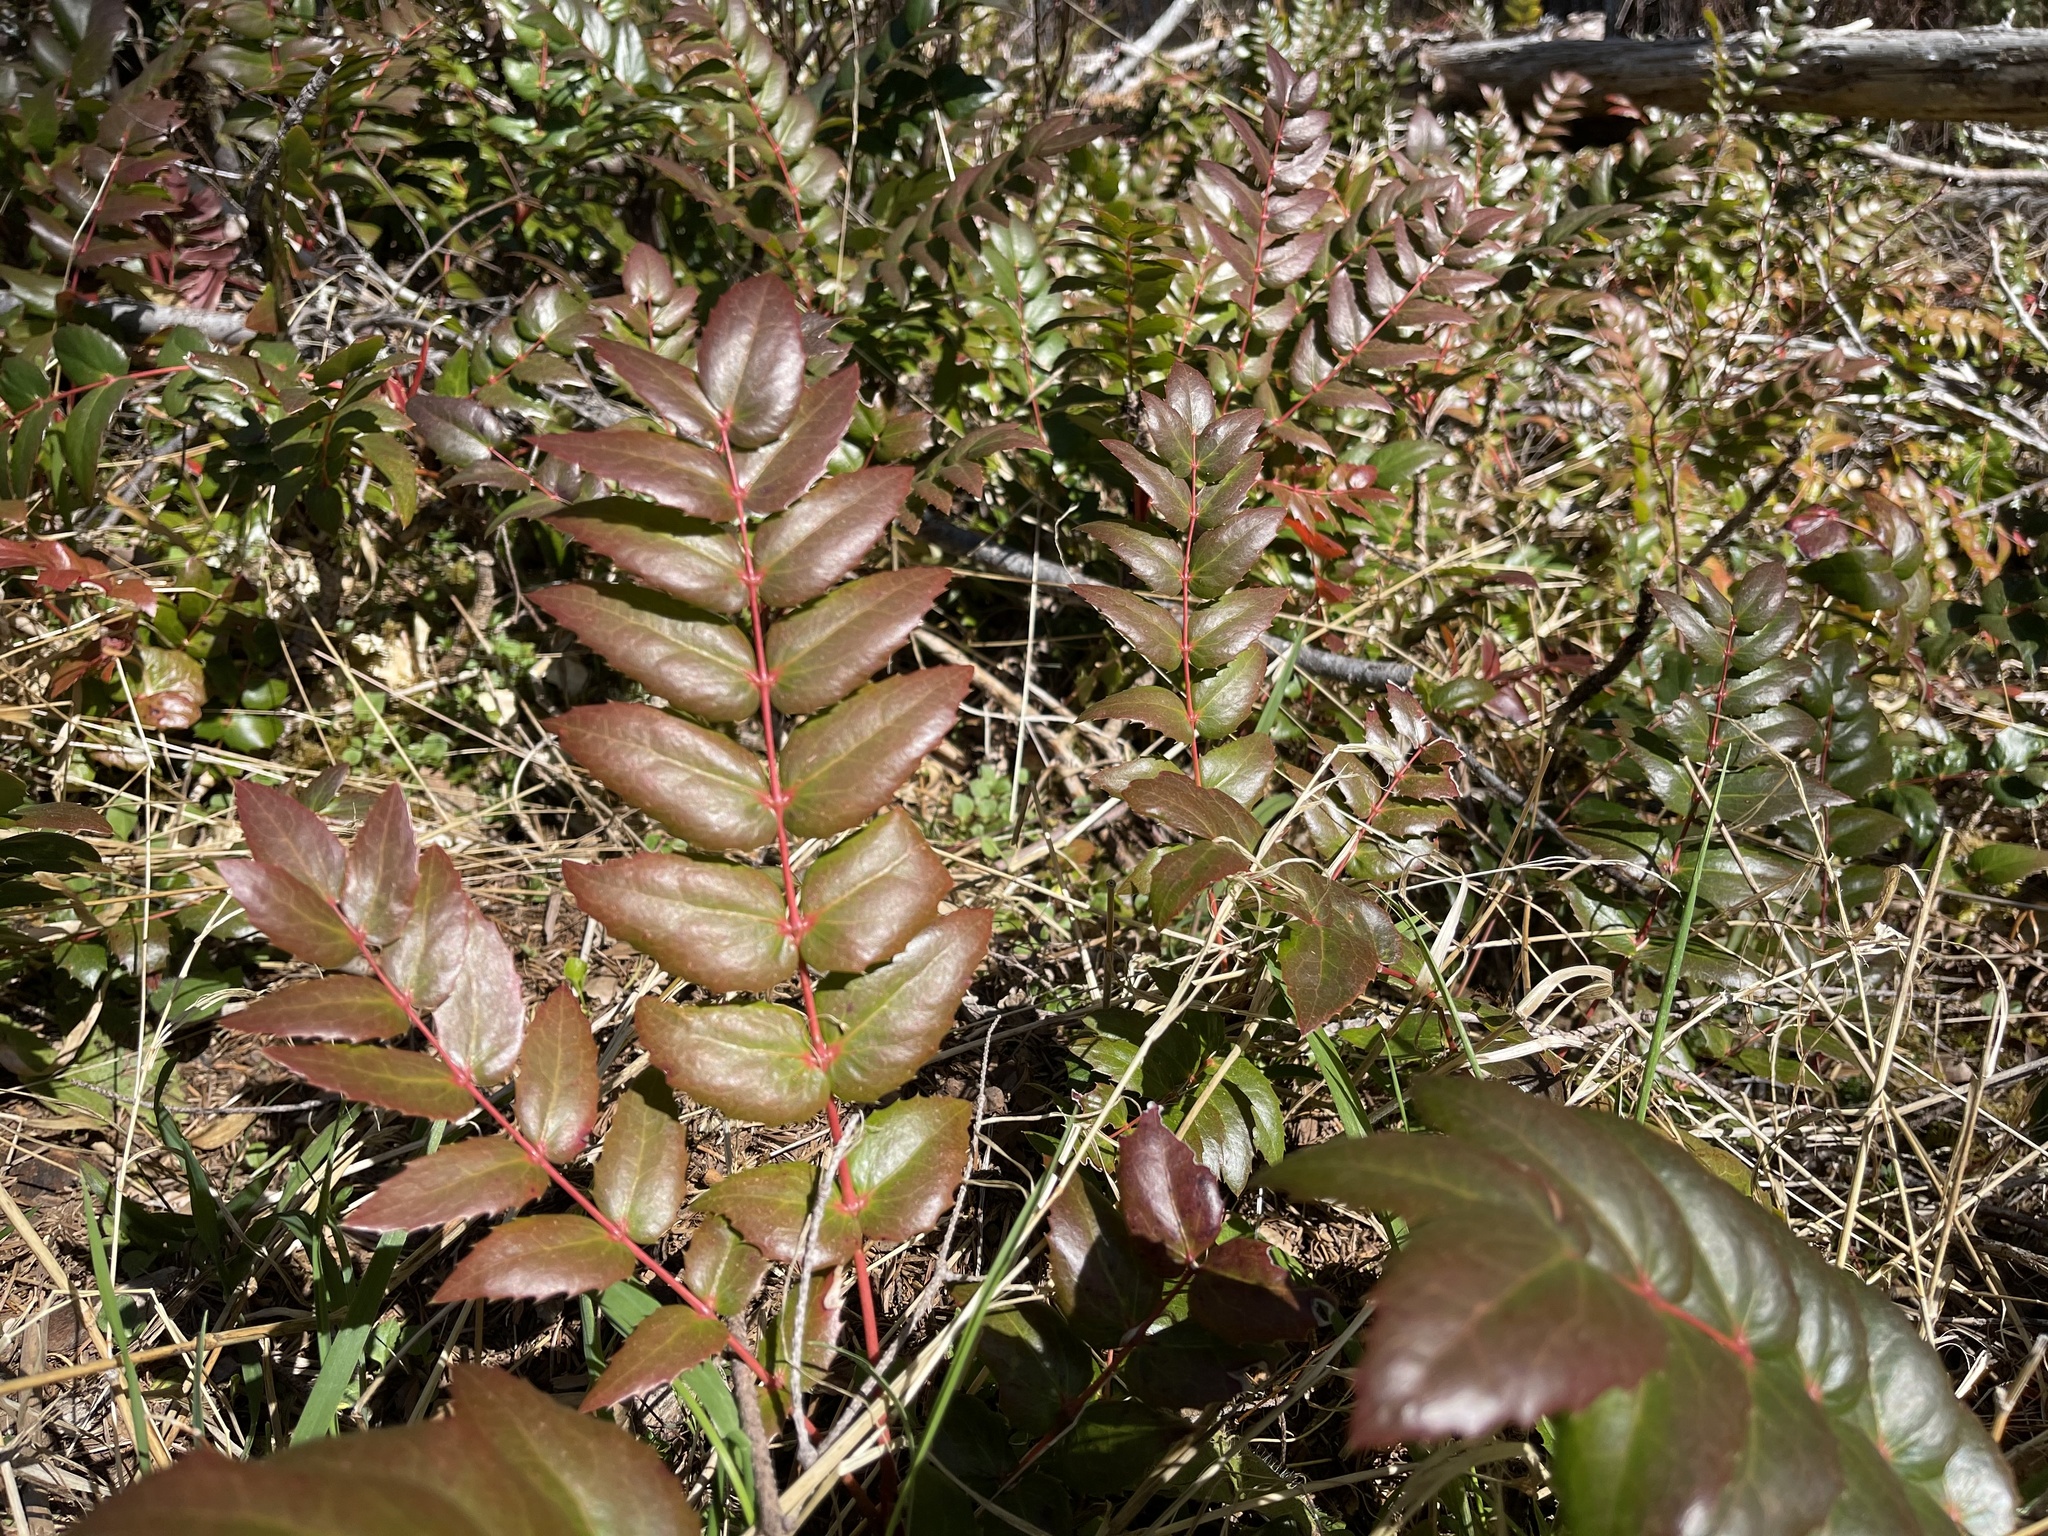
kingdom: Plantae
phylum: Tracheophyta
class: Magnoliopsida
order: Ranunculales
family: Berberidaceae
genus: Mahonia
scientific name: Mahonia nervosa
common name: Cascade oregon-grape
